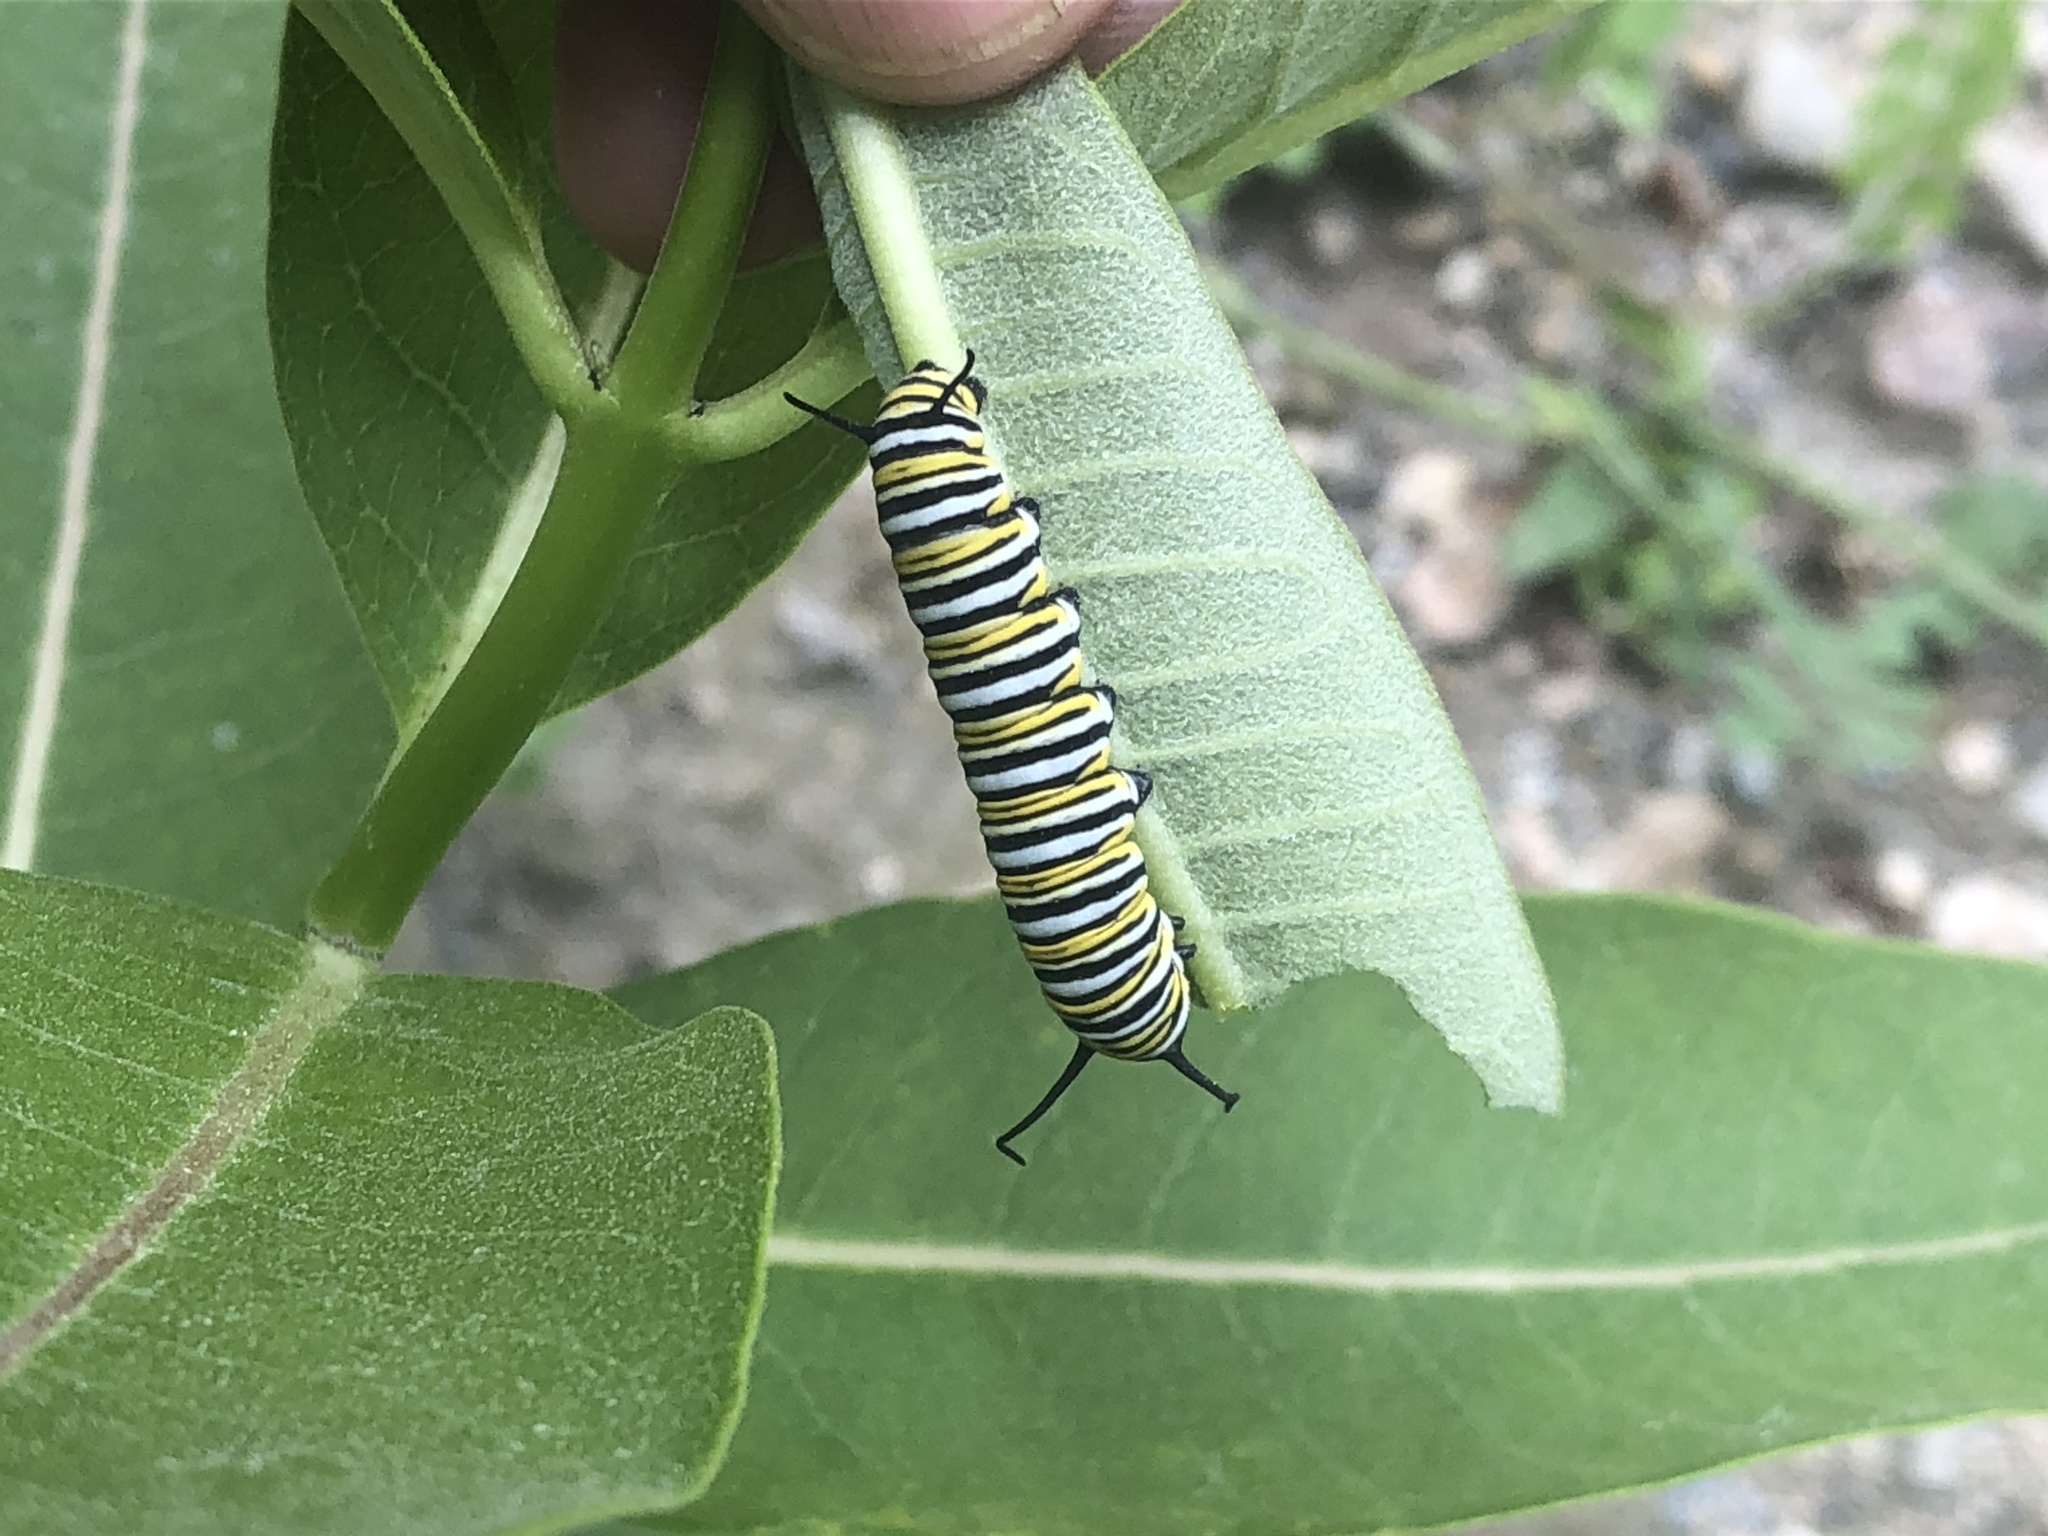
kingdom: Animalia
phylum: Arthropoda
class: Insecta
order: Lepidoptera
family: Nymphalidae
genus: Danaus
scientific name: Danaus plexippus
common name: Monarch
